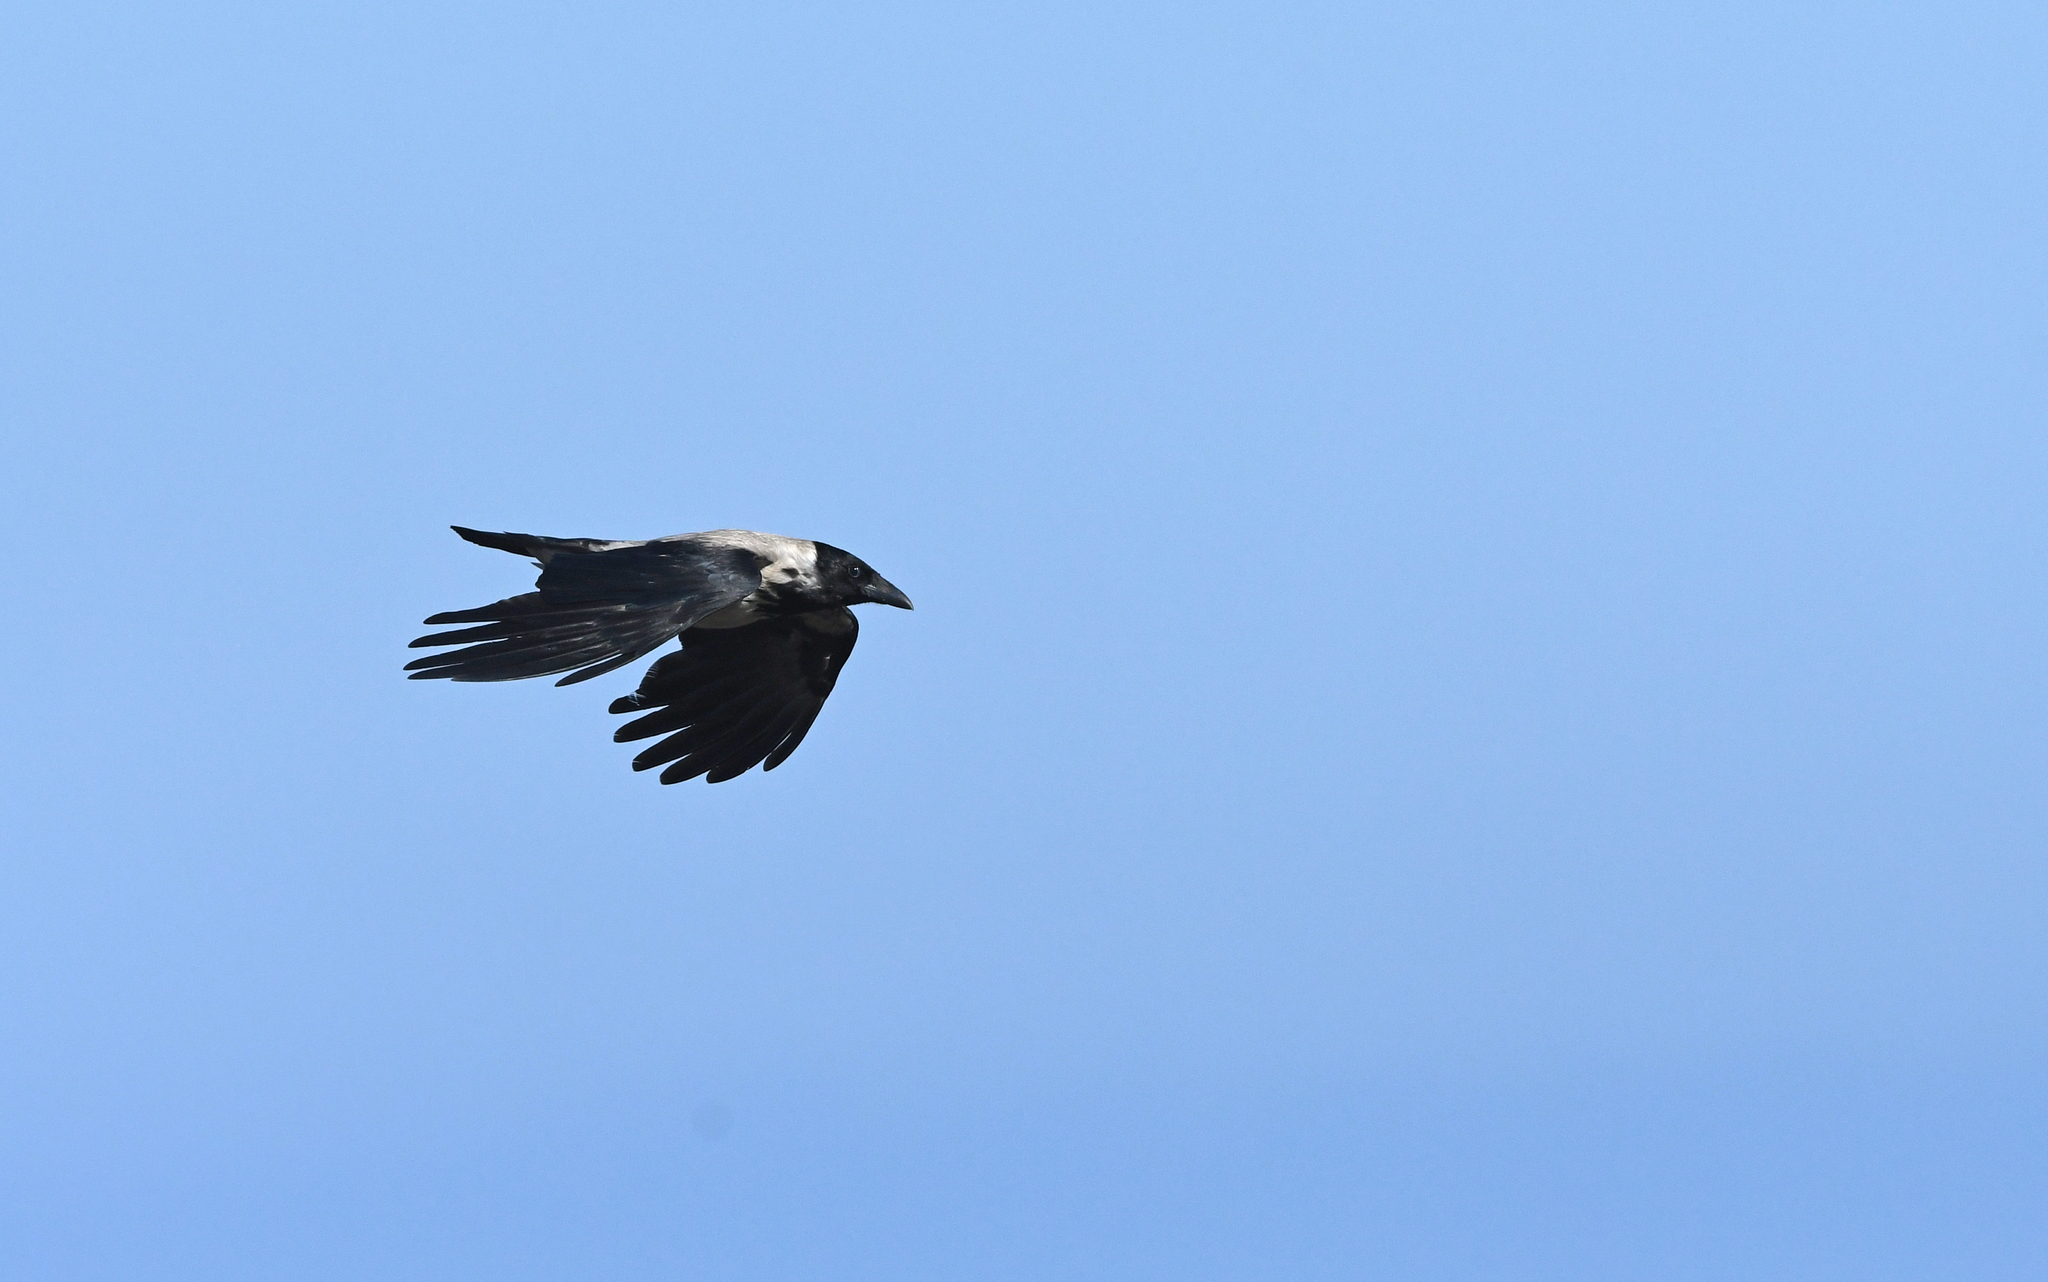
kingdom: Animalia
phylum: Chordata
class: Aves
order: Passeriformes
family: Corvidae
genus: Corvus
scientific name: Corvus cornix
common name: Hooded crow
